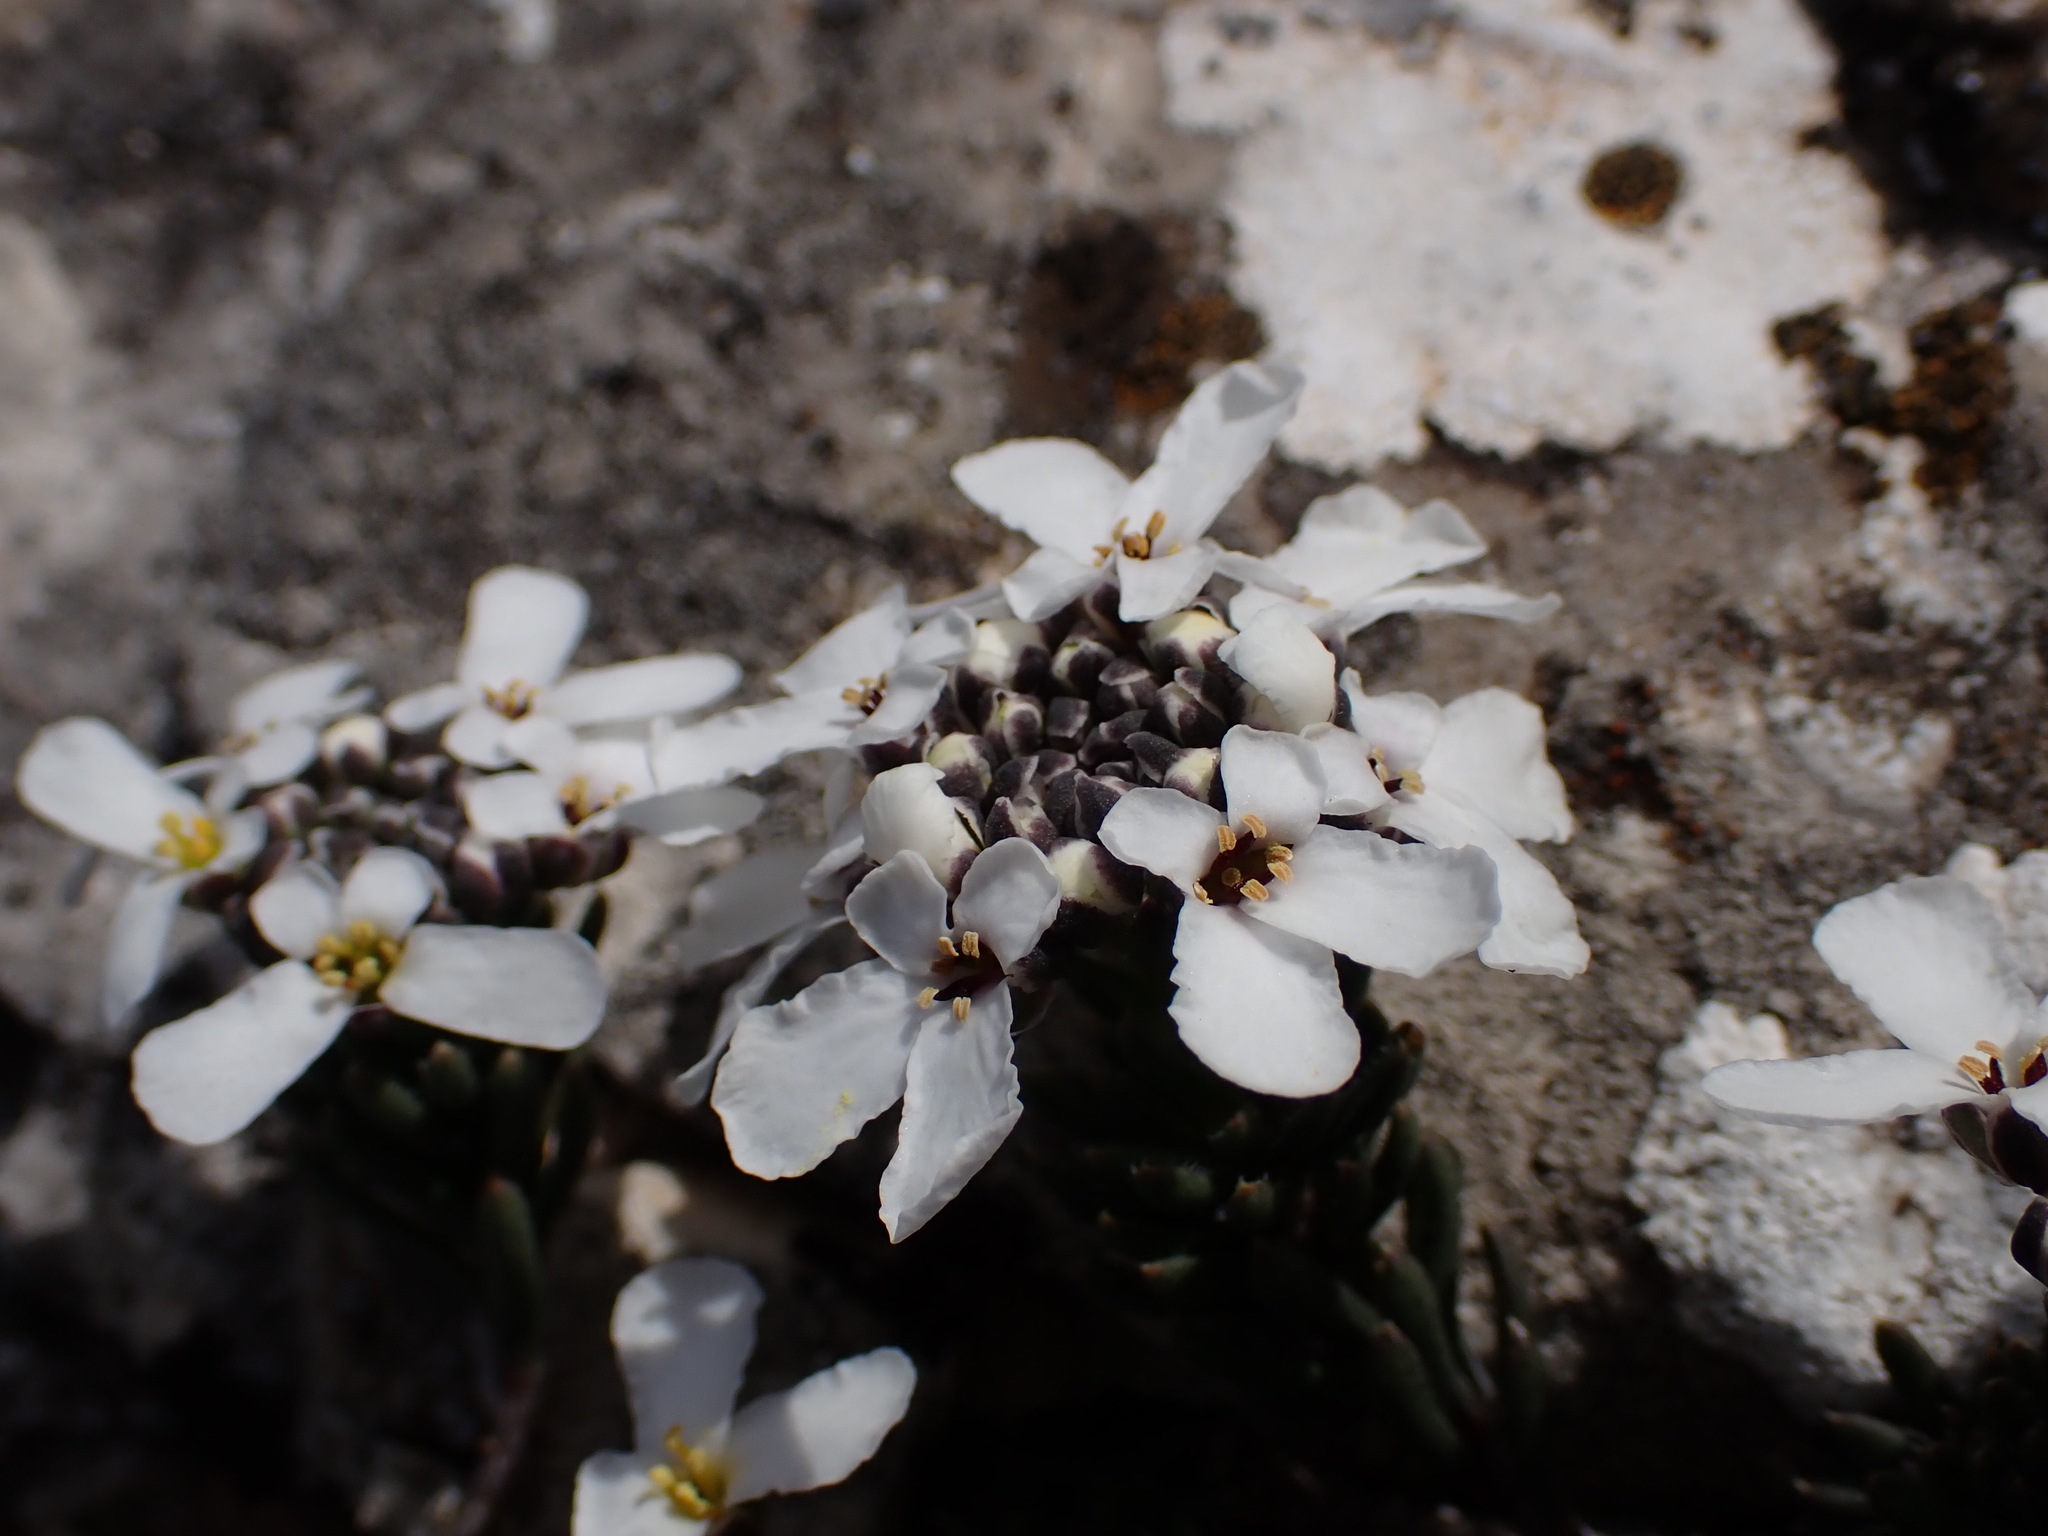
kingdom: Plantae
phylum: Tracheophyta
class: Magnoliopsida
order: Brassicales
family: Brassicaceae
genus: Iberis
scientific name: Iberis saxatilis
